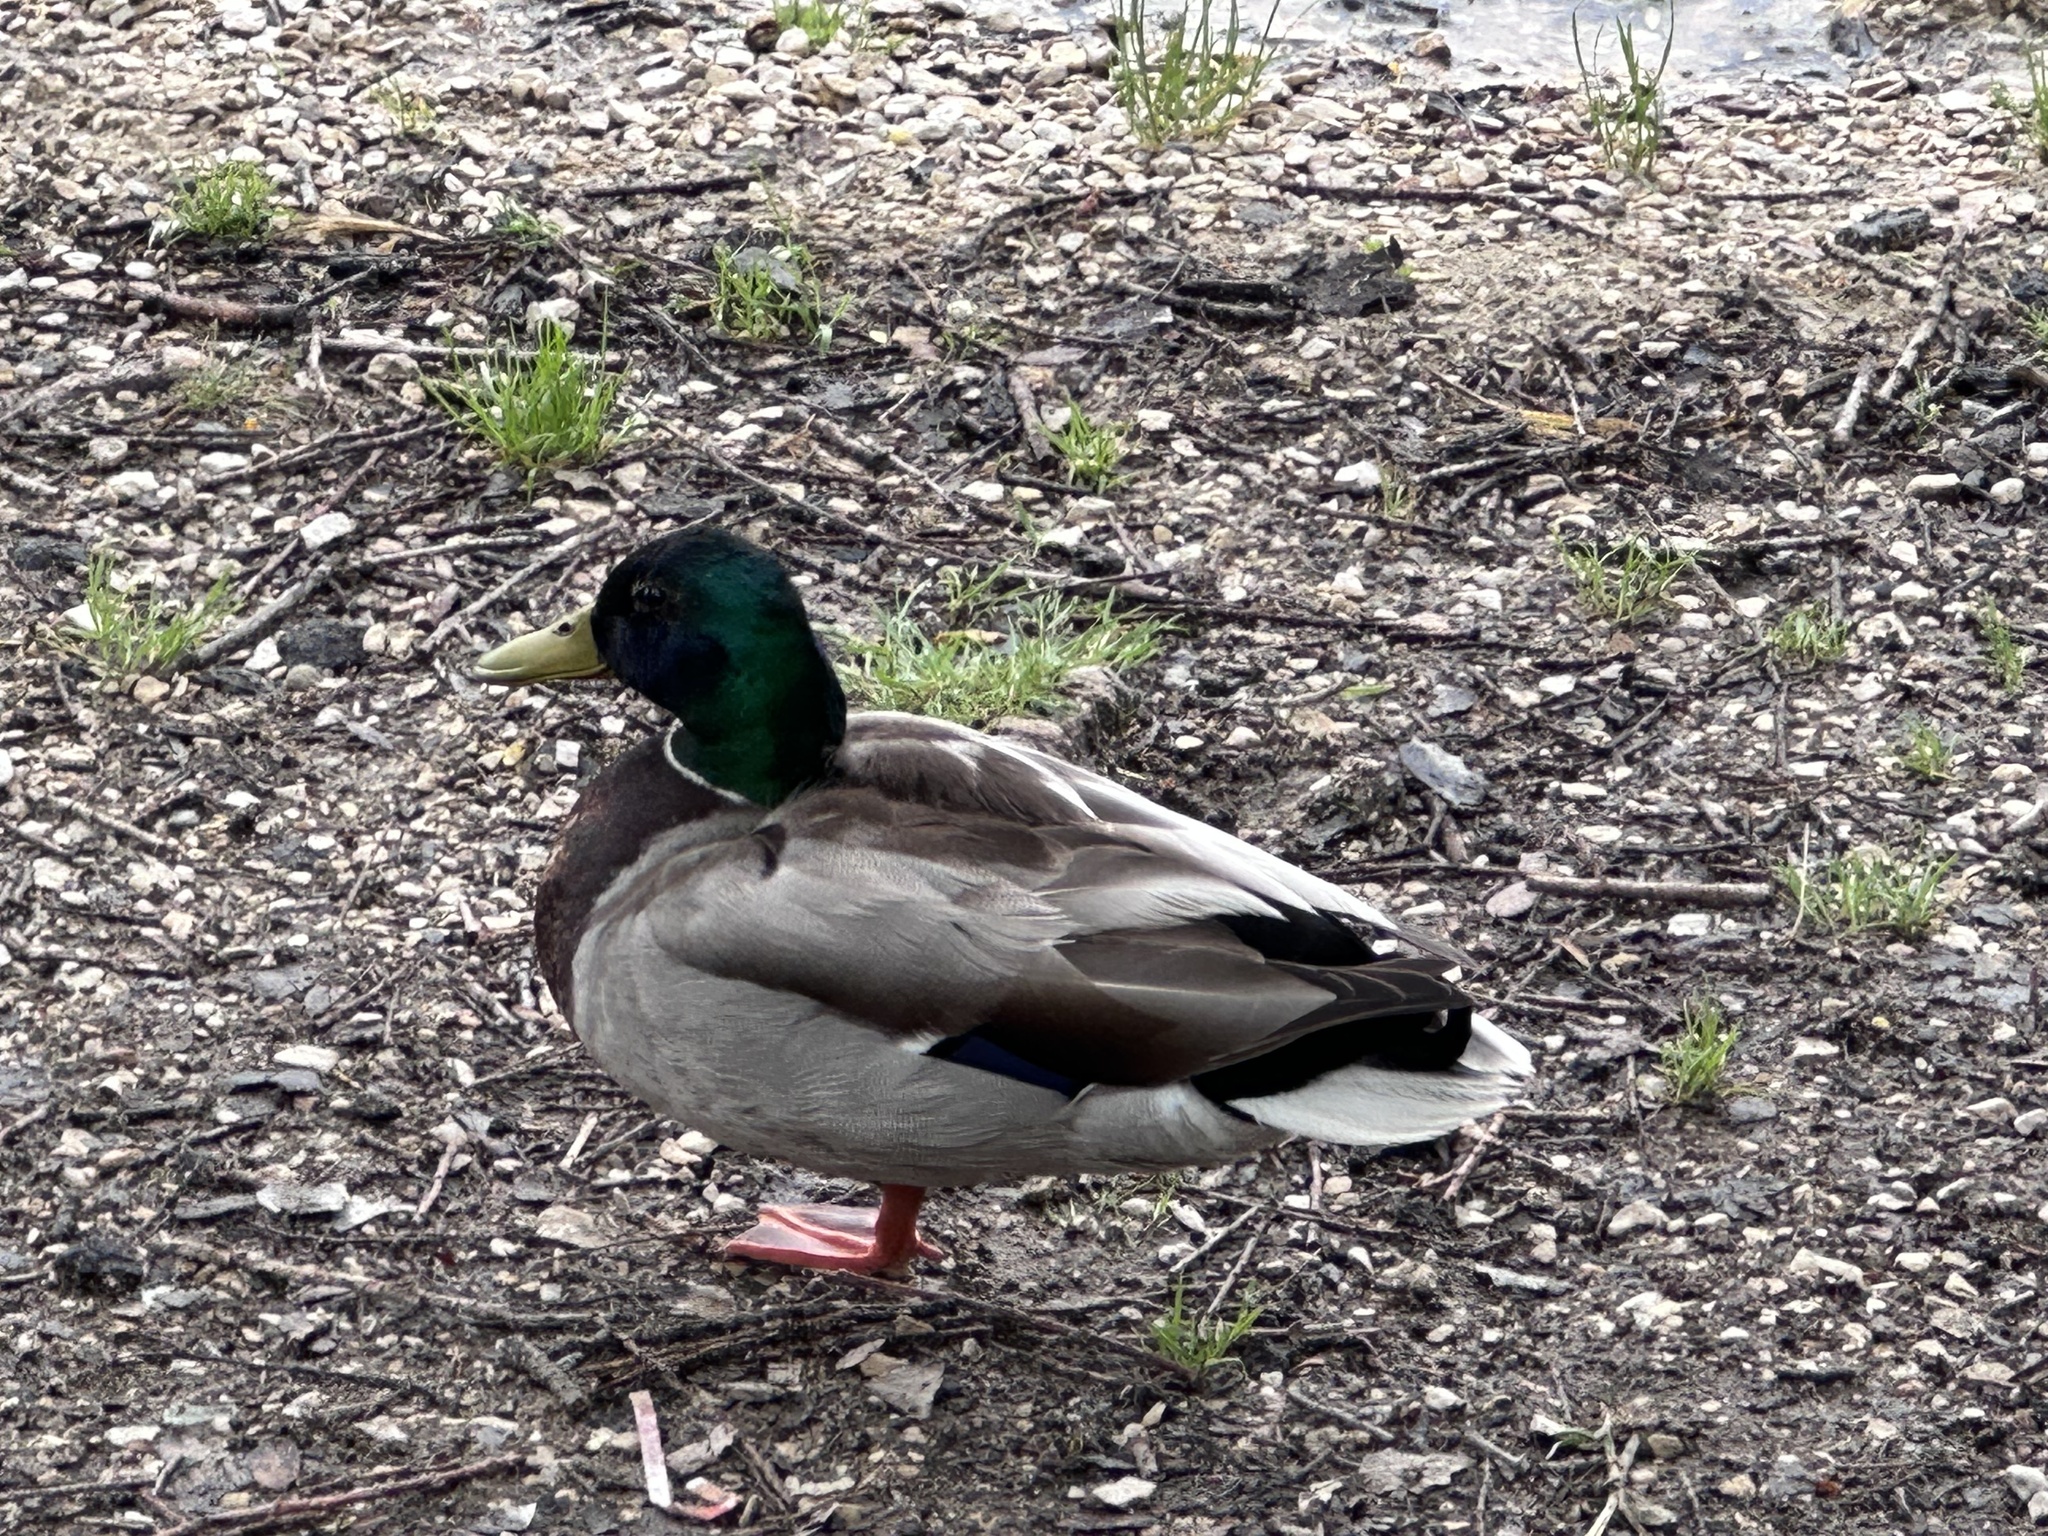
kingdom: Animalia
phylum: Chordata
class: Aves
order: Anseriformes
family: Anatidae
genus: Anas
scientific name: Anas platyrhynchos
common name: Mallard
